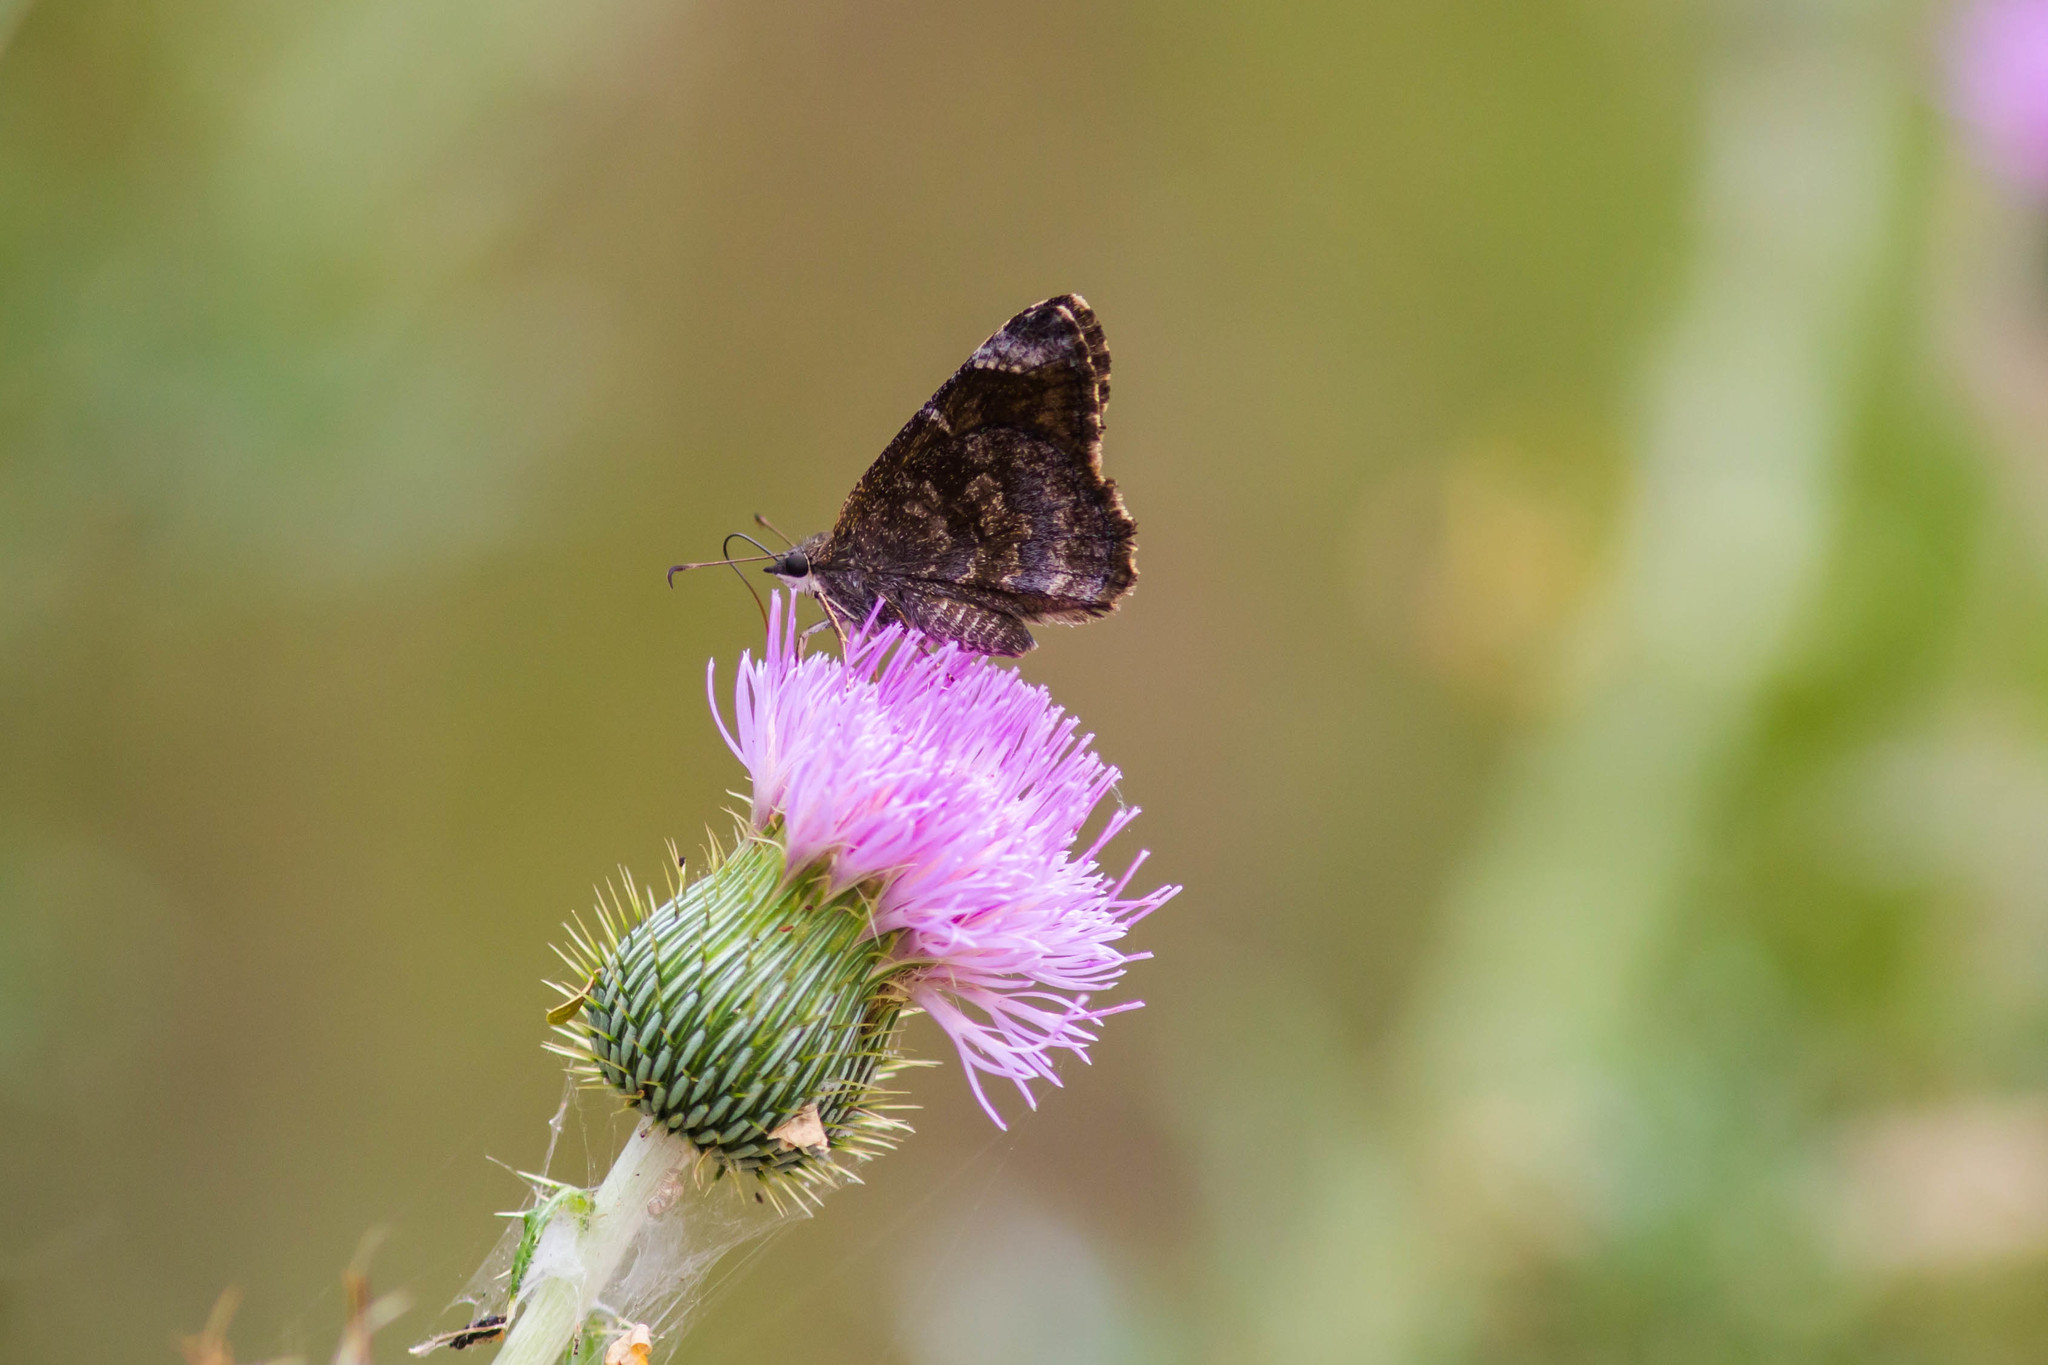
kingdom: Animalia
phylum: Arthropoda
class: Insecta
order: Lepidoptera
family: Hesperiidae
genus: Caicella
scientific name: Caicella calchas
